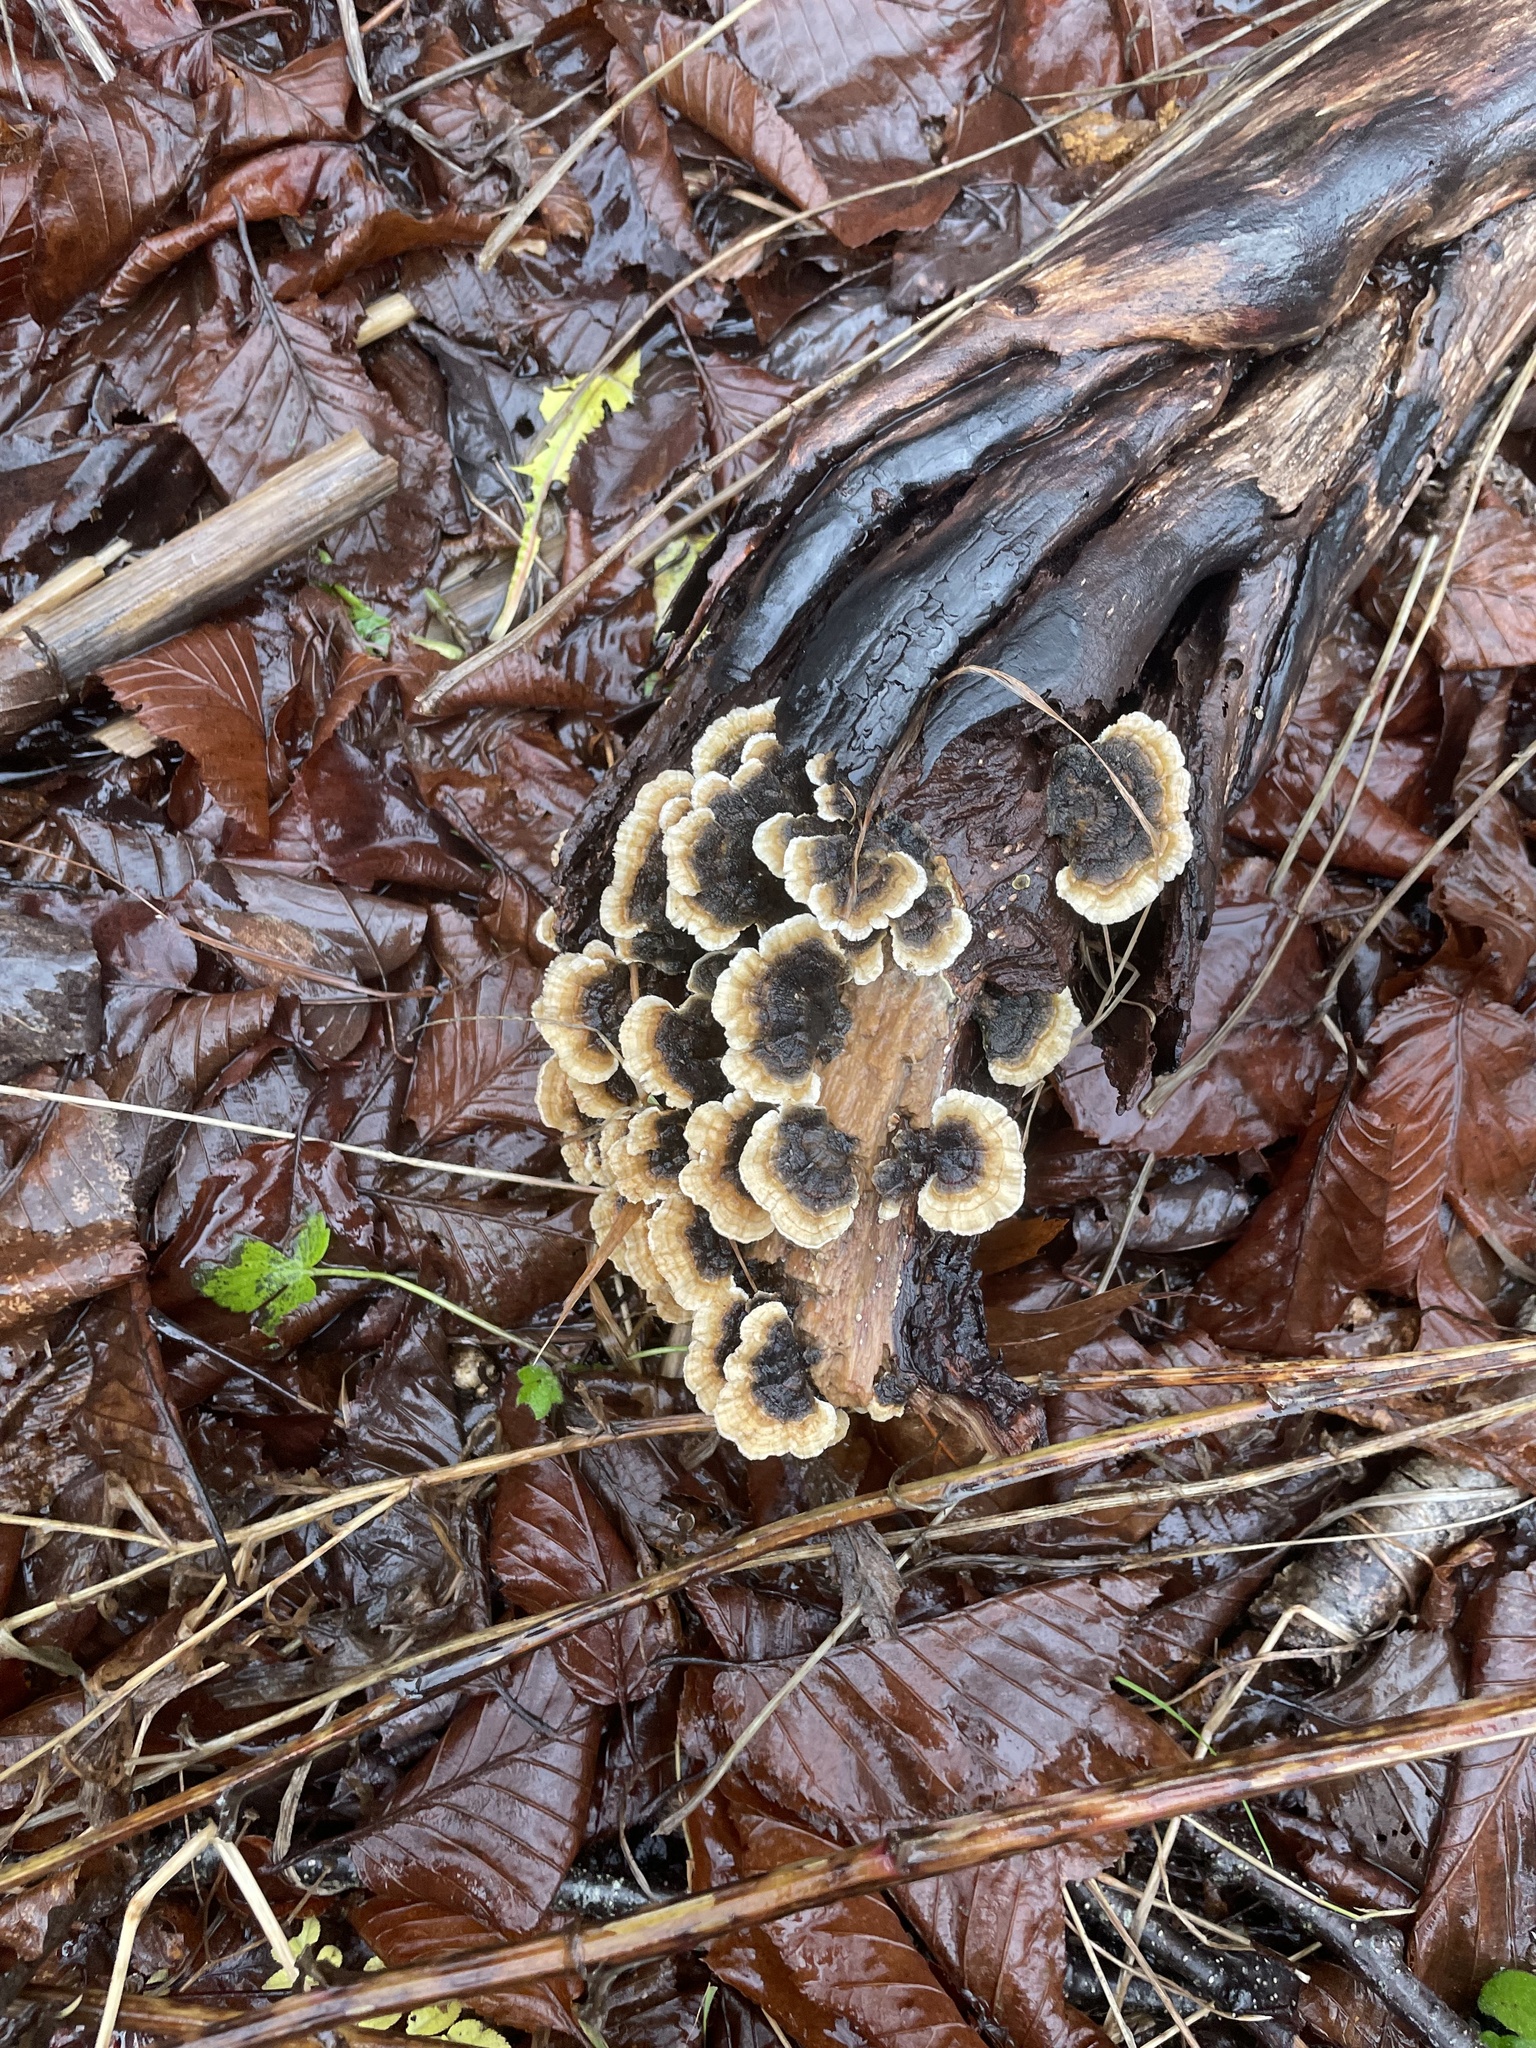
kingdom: Fungi
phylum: Basidiomycota
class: Agaricomycetes
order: Polyporales
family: Polyporaceae
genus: Trametes
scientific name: Trametes versicolor
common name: Turkeytail
